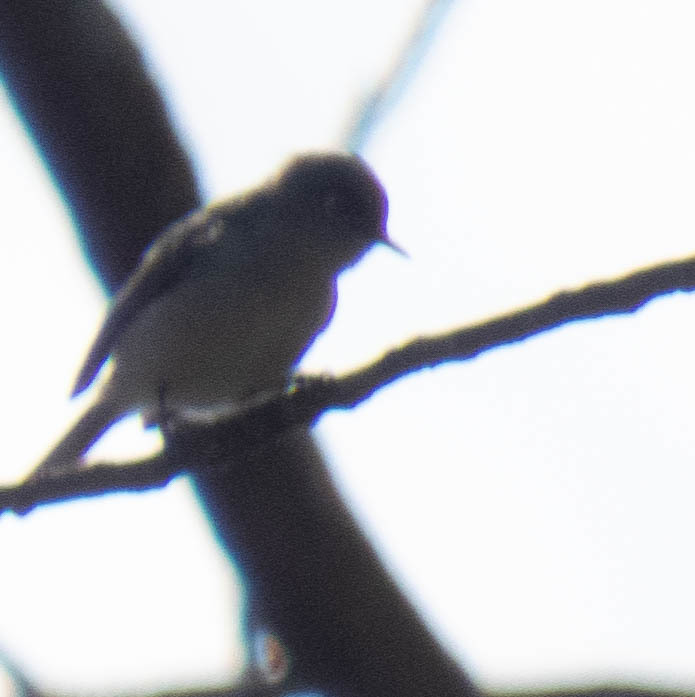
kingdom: Animalia
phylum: Chordata
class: Aves
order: Passeriformes
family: Polioptilidae
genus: Polioptila
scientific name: Polioptila caerulea
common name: Blue-gray gnatcatcher
